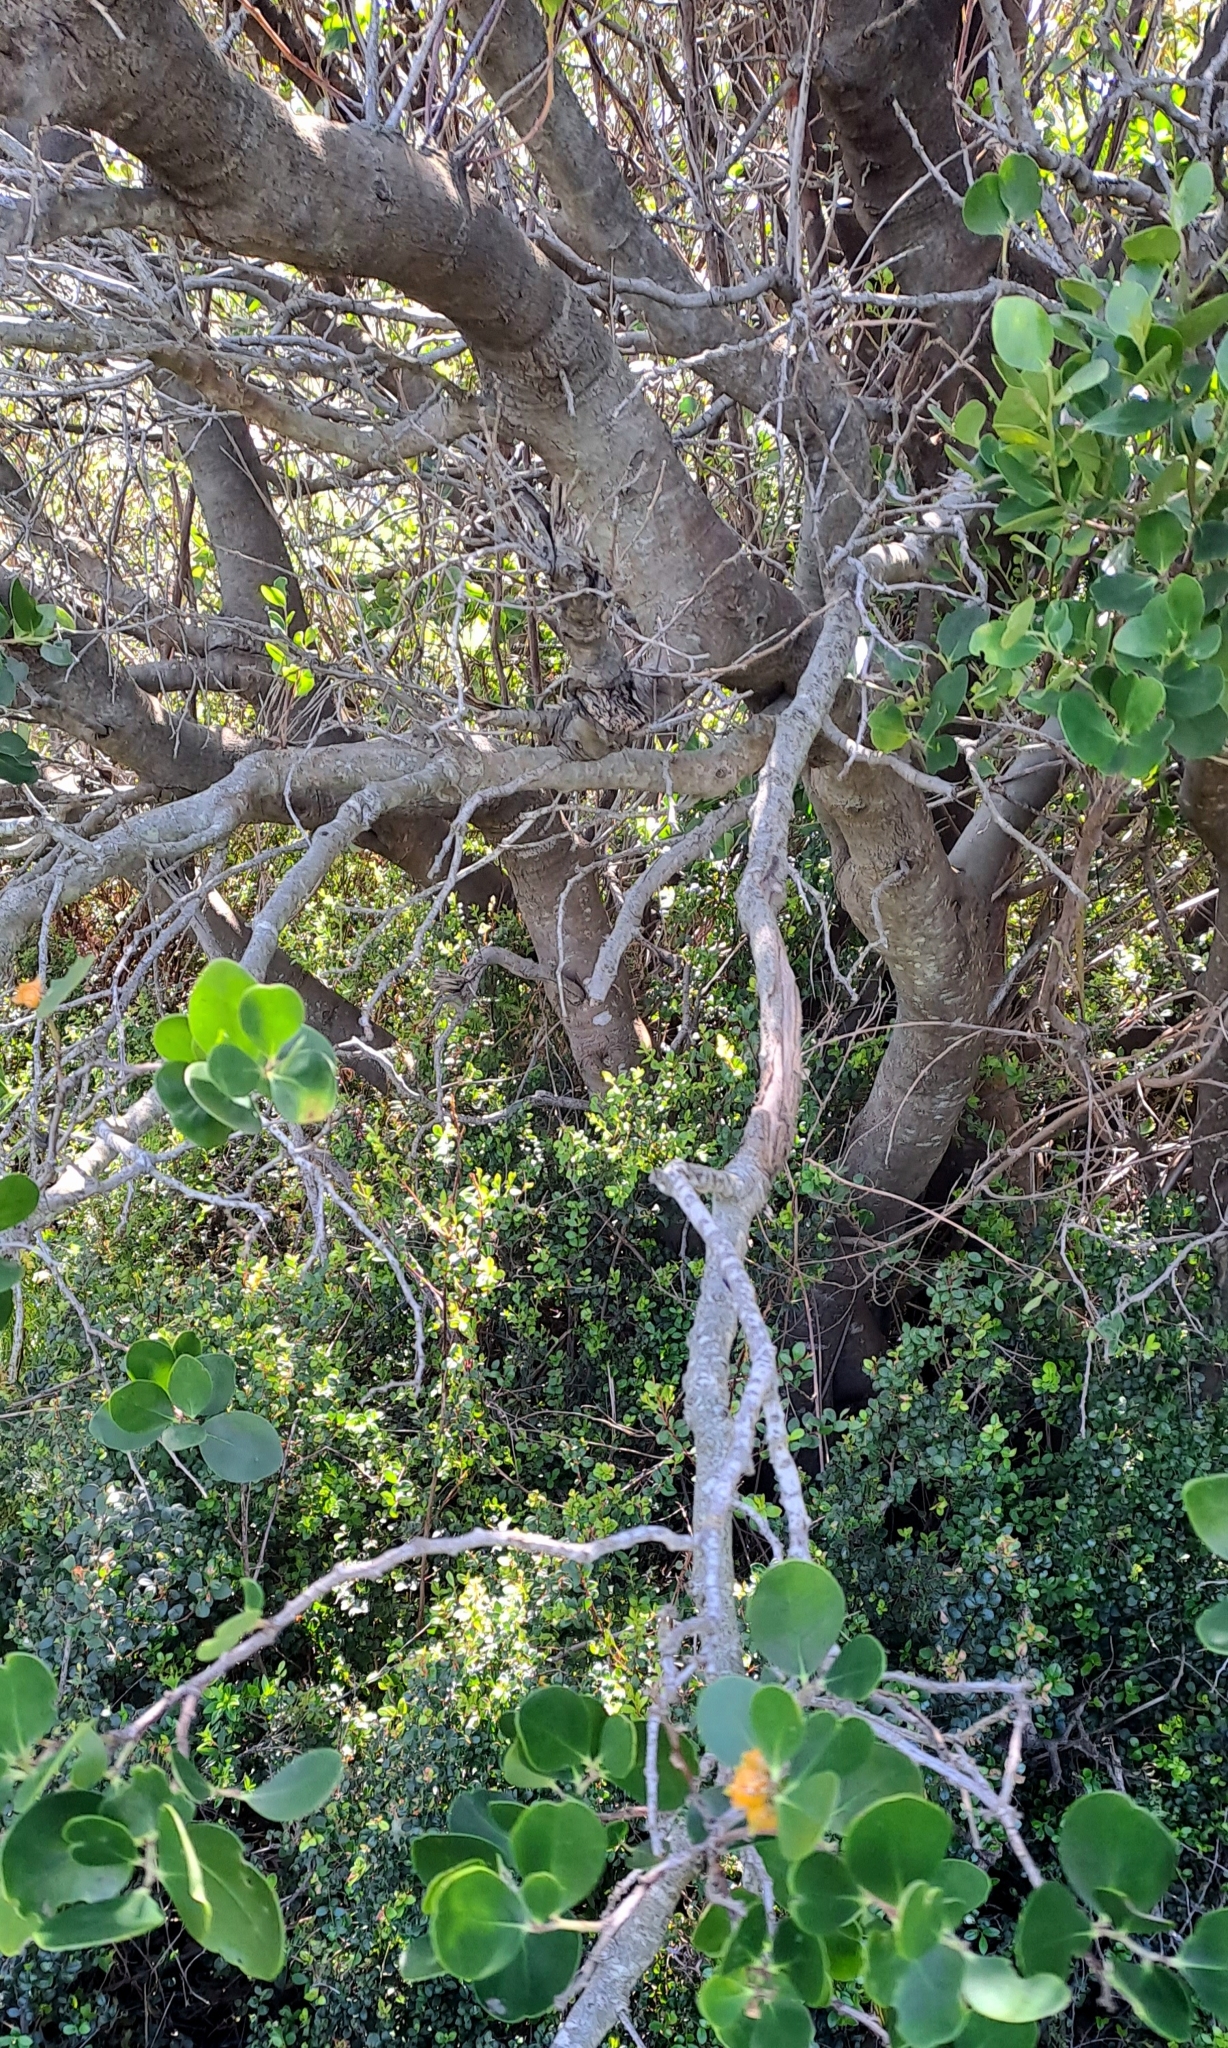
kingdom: Plantae
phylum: Tracheophyta
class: Magnoliopsida
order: Celastrales
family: Celastraceae
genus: Pterocelastrus
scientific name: Pterocelastrus tricuspidatus
